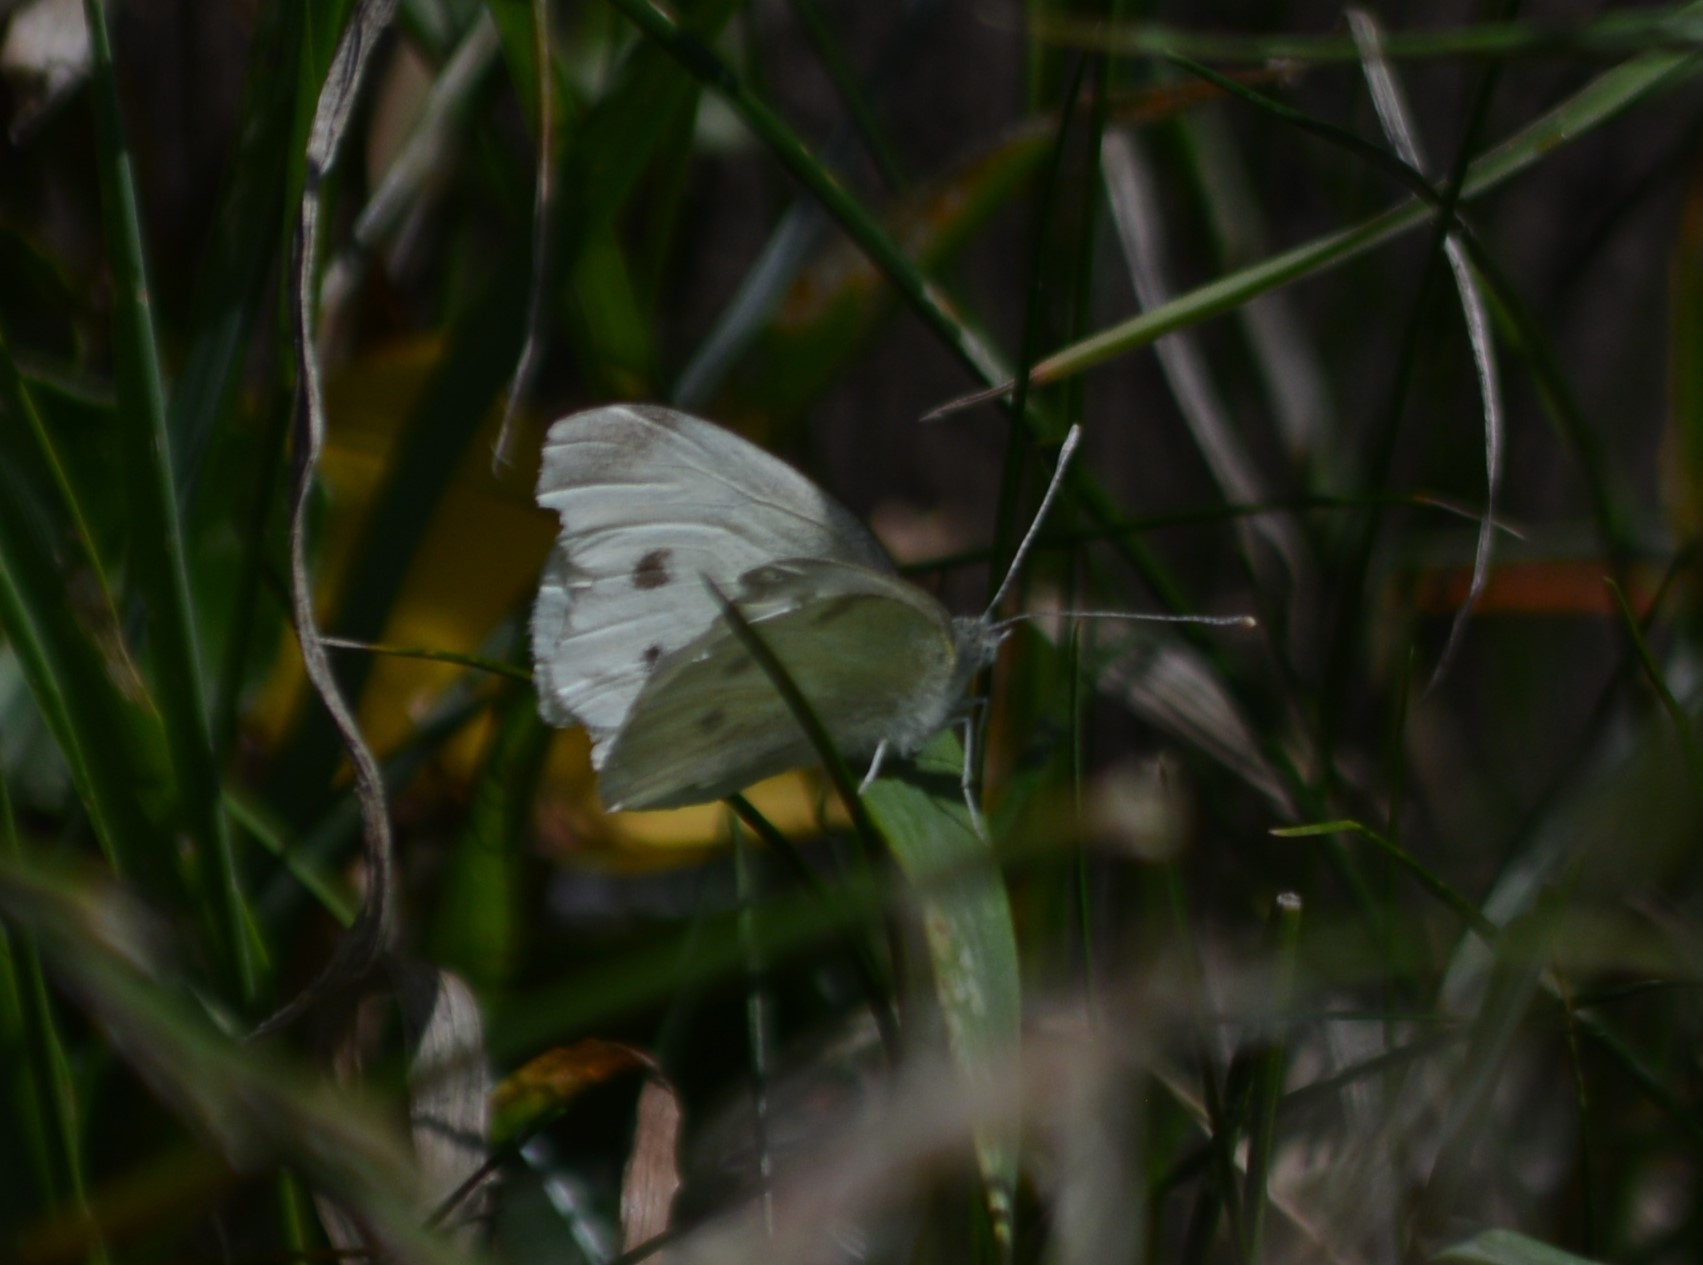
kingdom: Animalia
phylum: Arthropoda
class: Insecta
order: Lepidoptera
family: Pieridae
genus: Pieris
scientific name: Pieris rapae
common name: Small white
